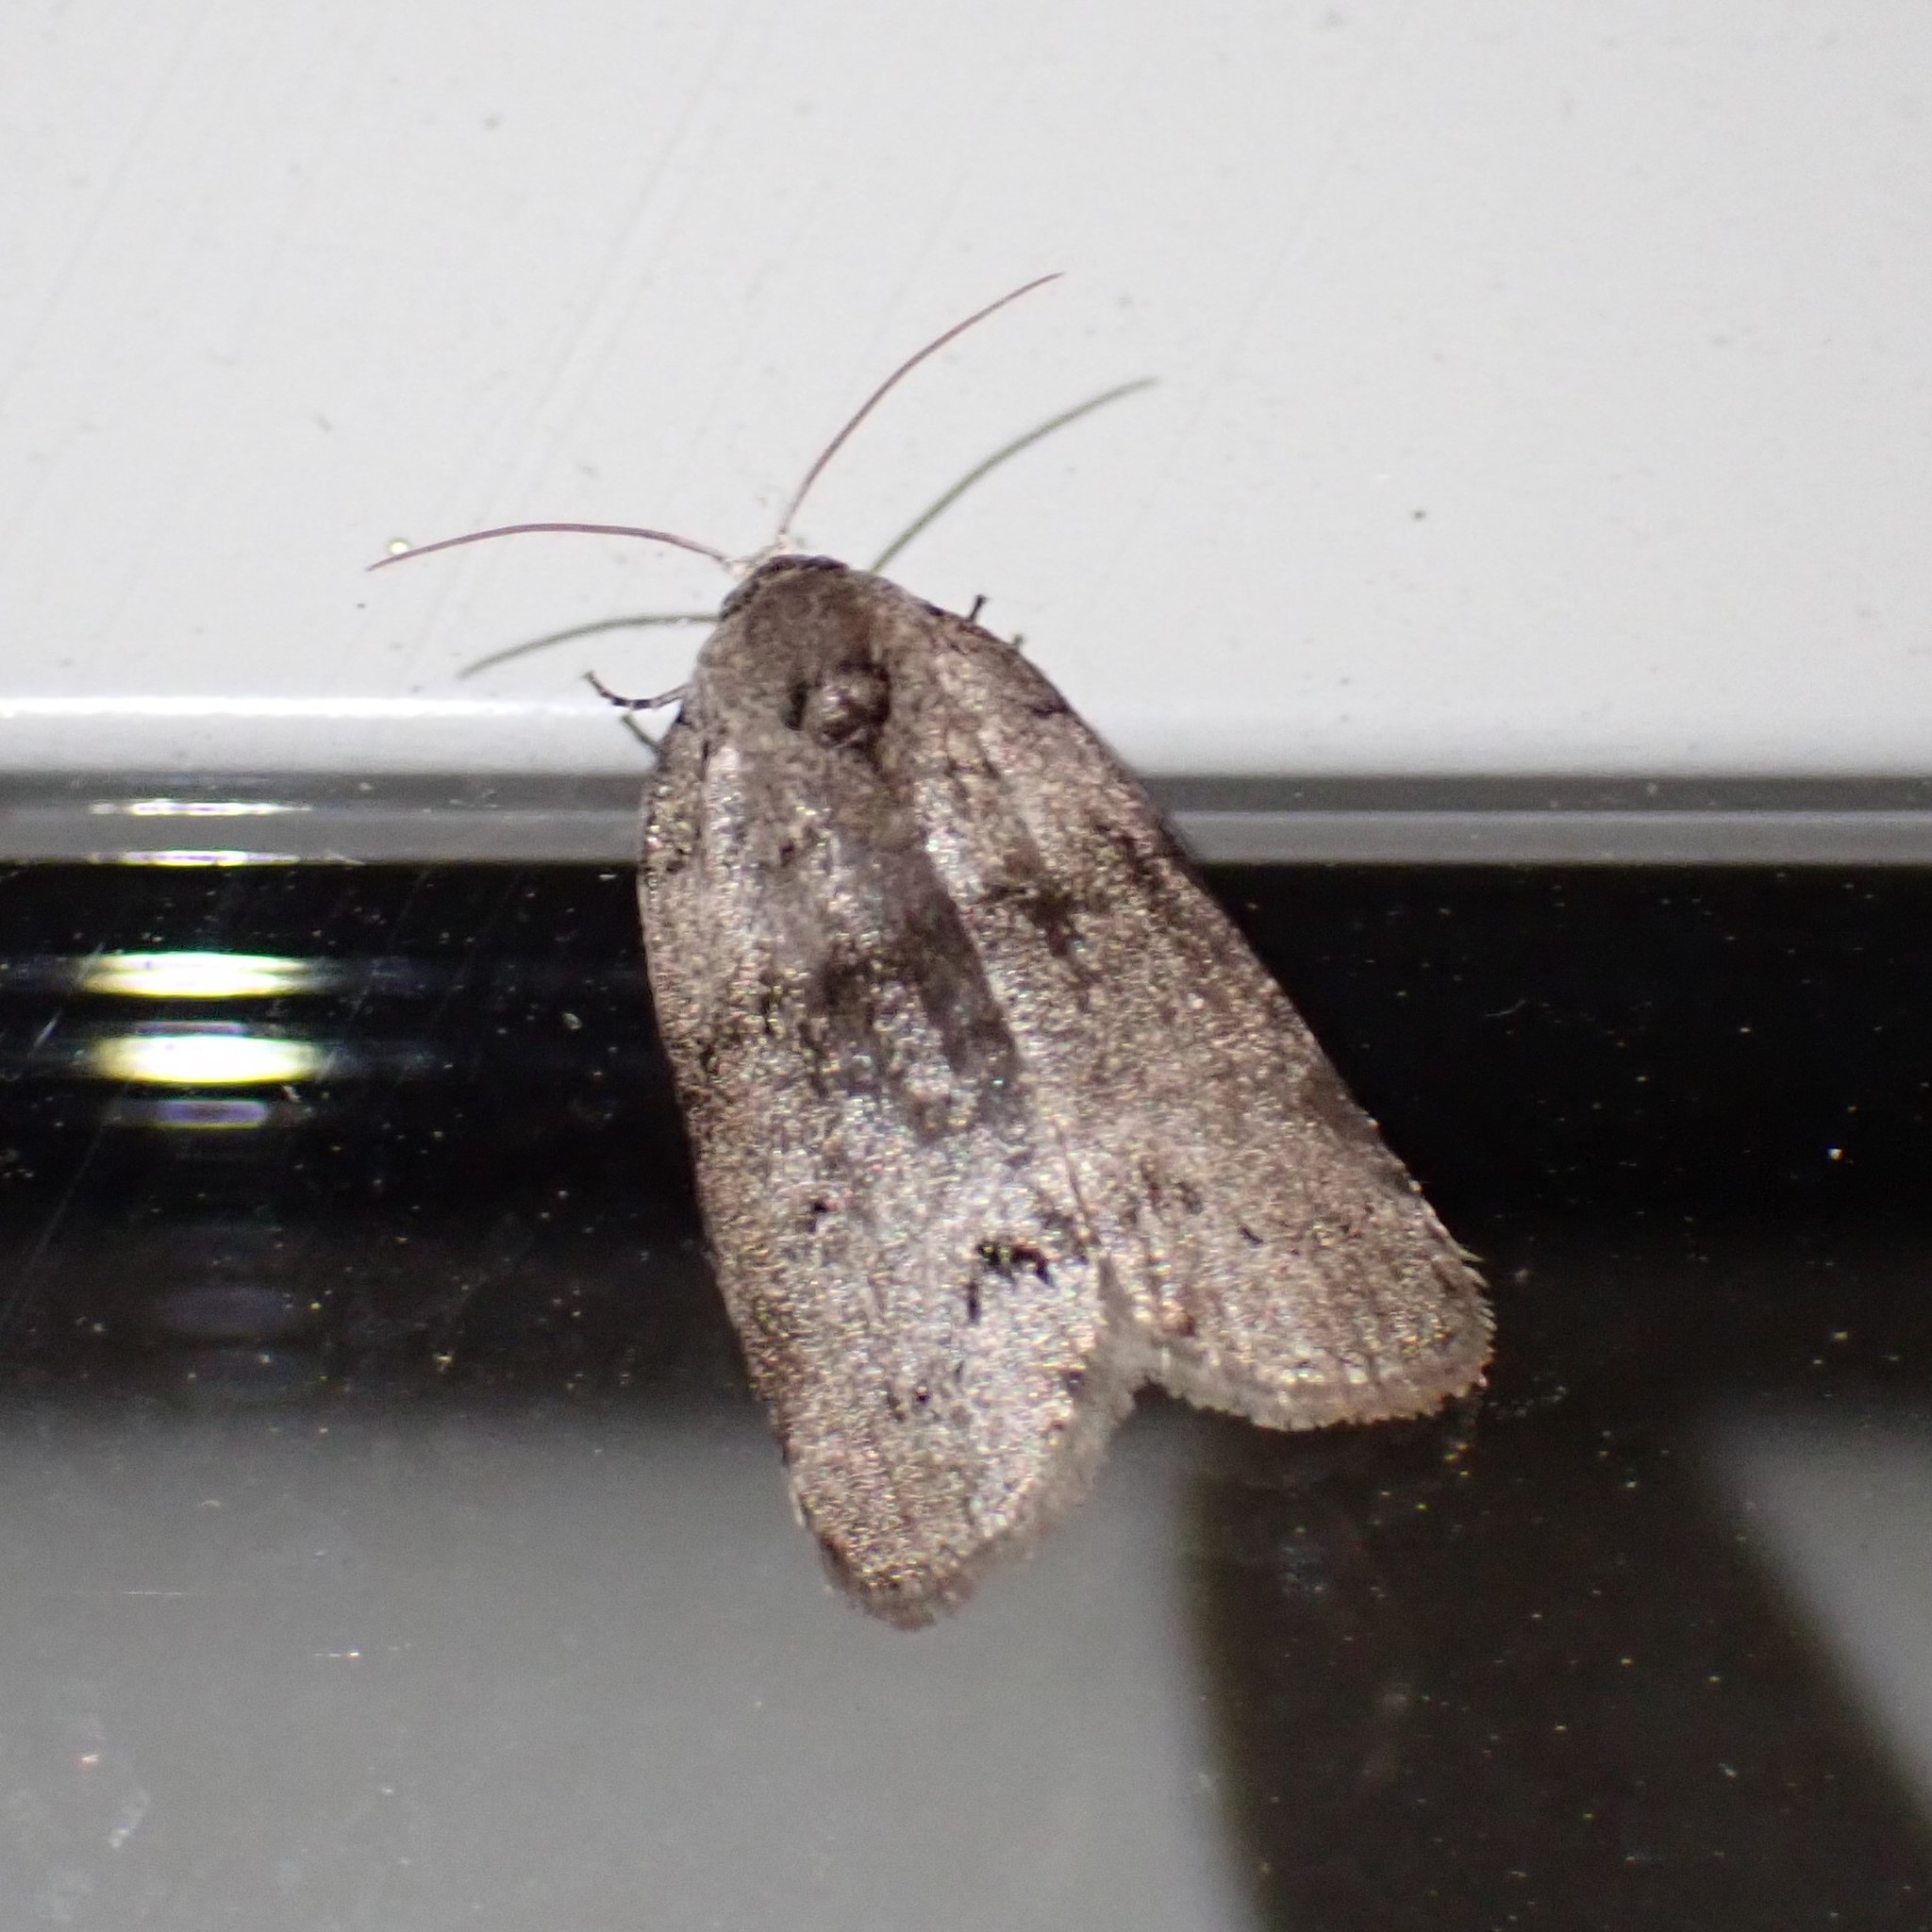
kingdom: Animalia
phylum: Arthropoda
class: Insecta
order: Lepidoptera
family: Noctuidae
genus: Polygrammate
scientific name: Polygrammate
